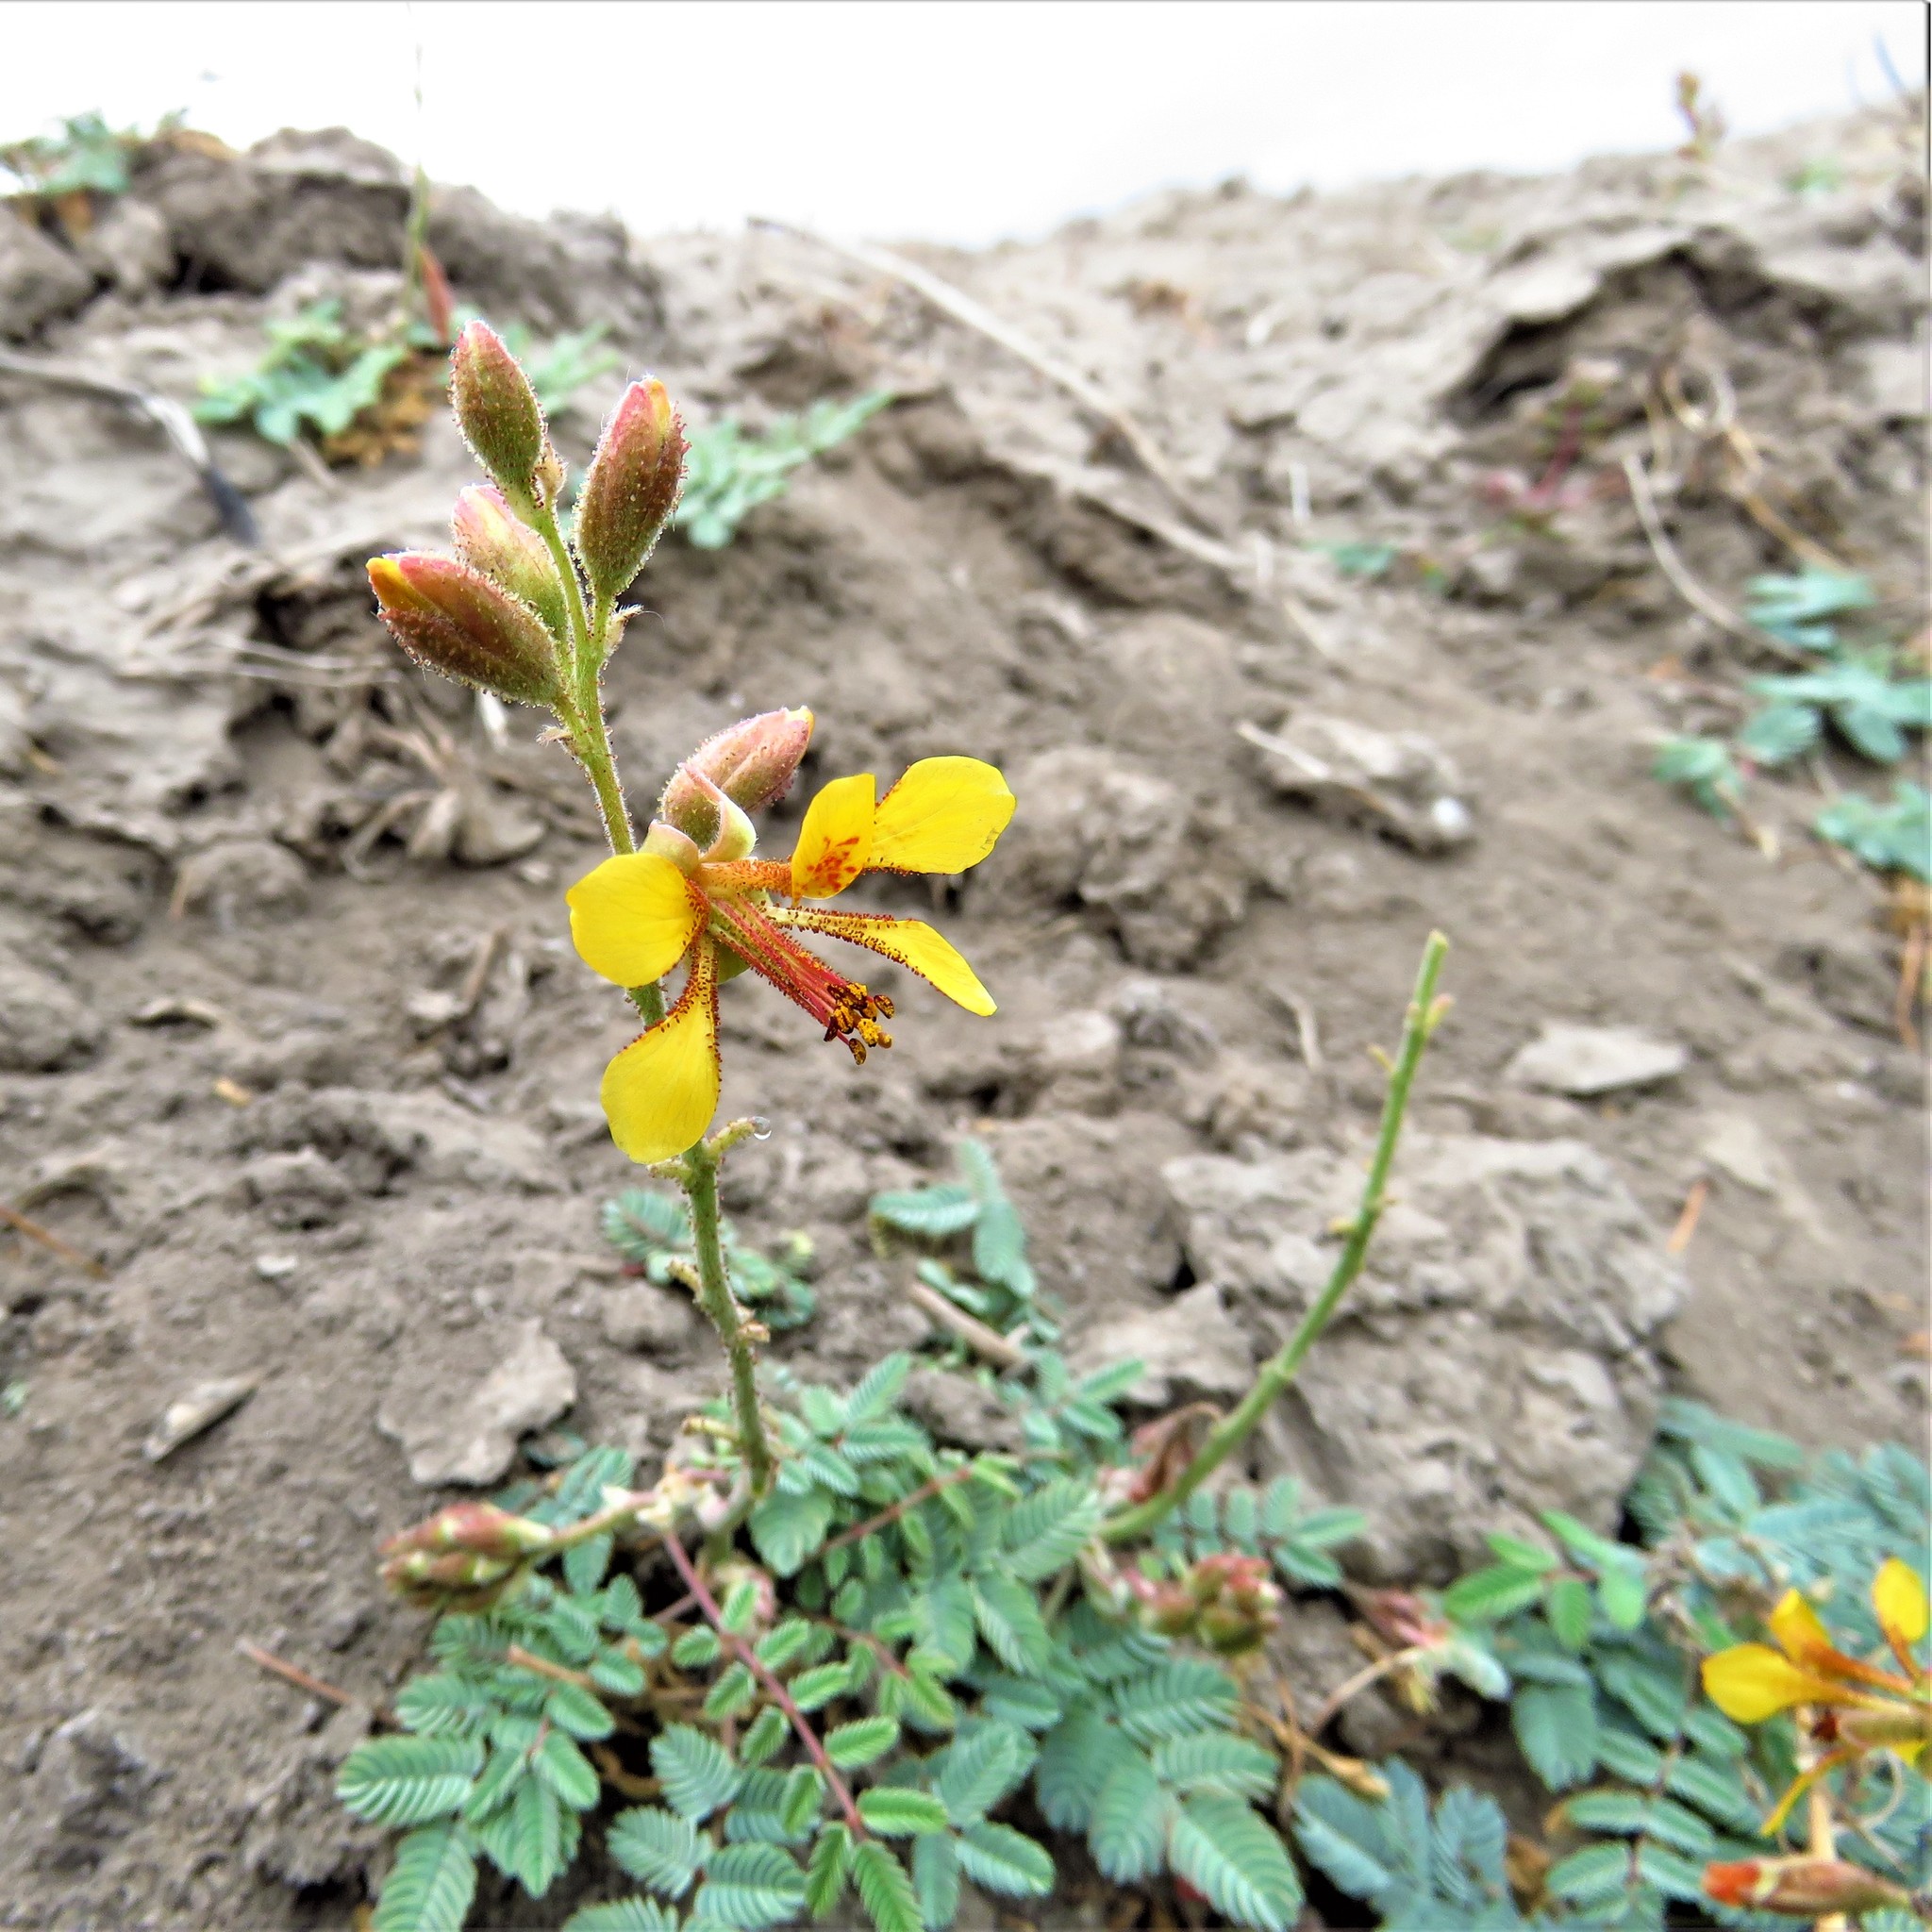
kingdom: Plantae
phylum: Tracheophyta
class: Magnoliopsida
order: Fabales
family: Fabaceae
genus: Hoffmannseggia
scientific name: Hoffmannseggia glauca
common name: Pignut
